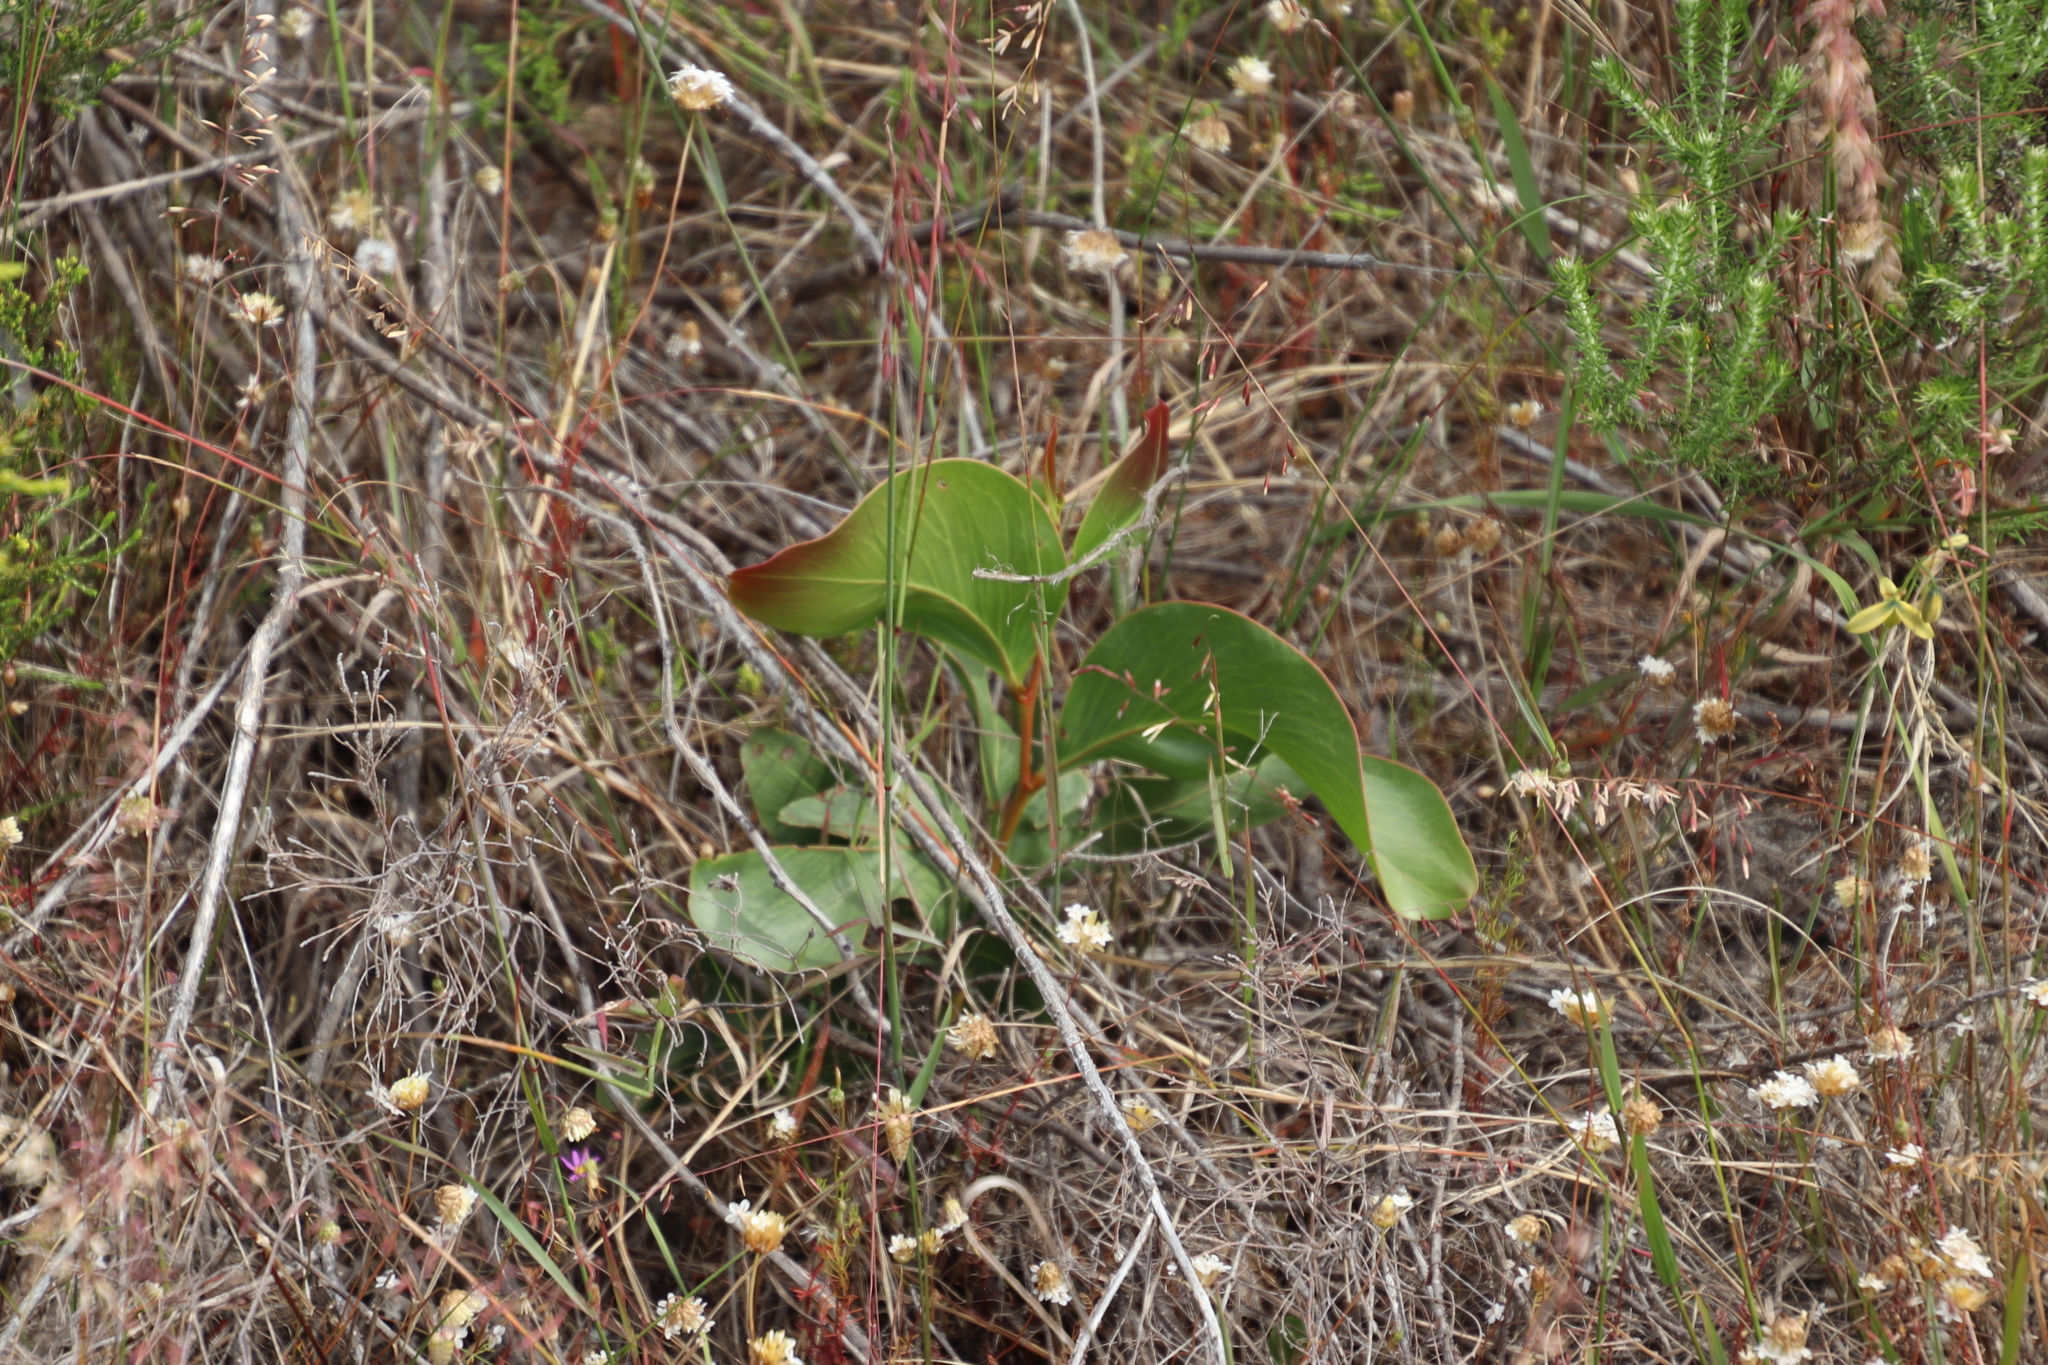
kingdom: Plantae
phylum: Tracheophyta
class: Magnoliopsida
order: Fabales
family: Fabaceae
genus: Acacia
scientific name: Acacia pycnantha
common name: Golden wattle
